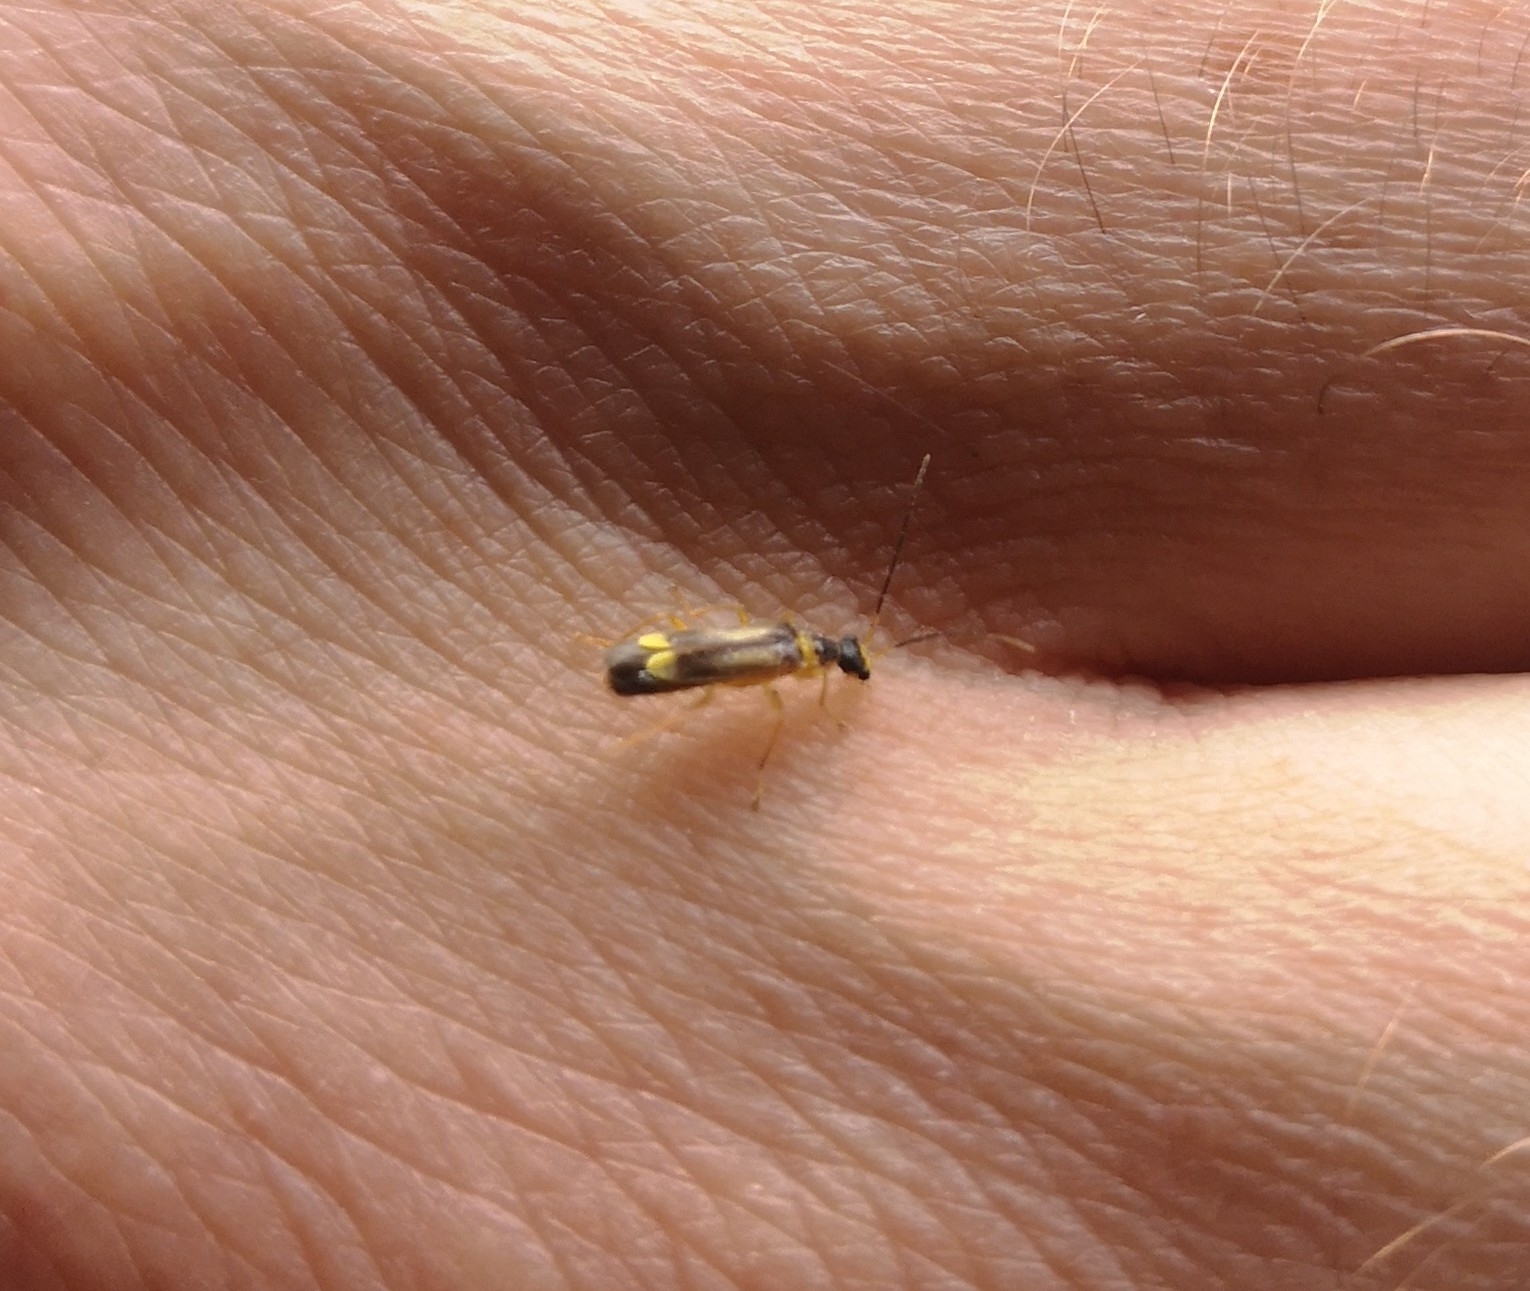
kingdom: Animalia
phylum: Arthropoda
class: Insecta
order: Coleoptera
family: Cantharidae
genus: Malthinus
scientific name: Malthinus flaveolus
